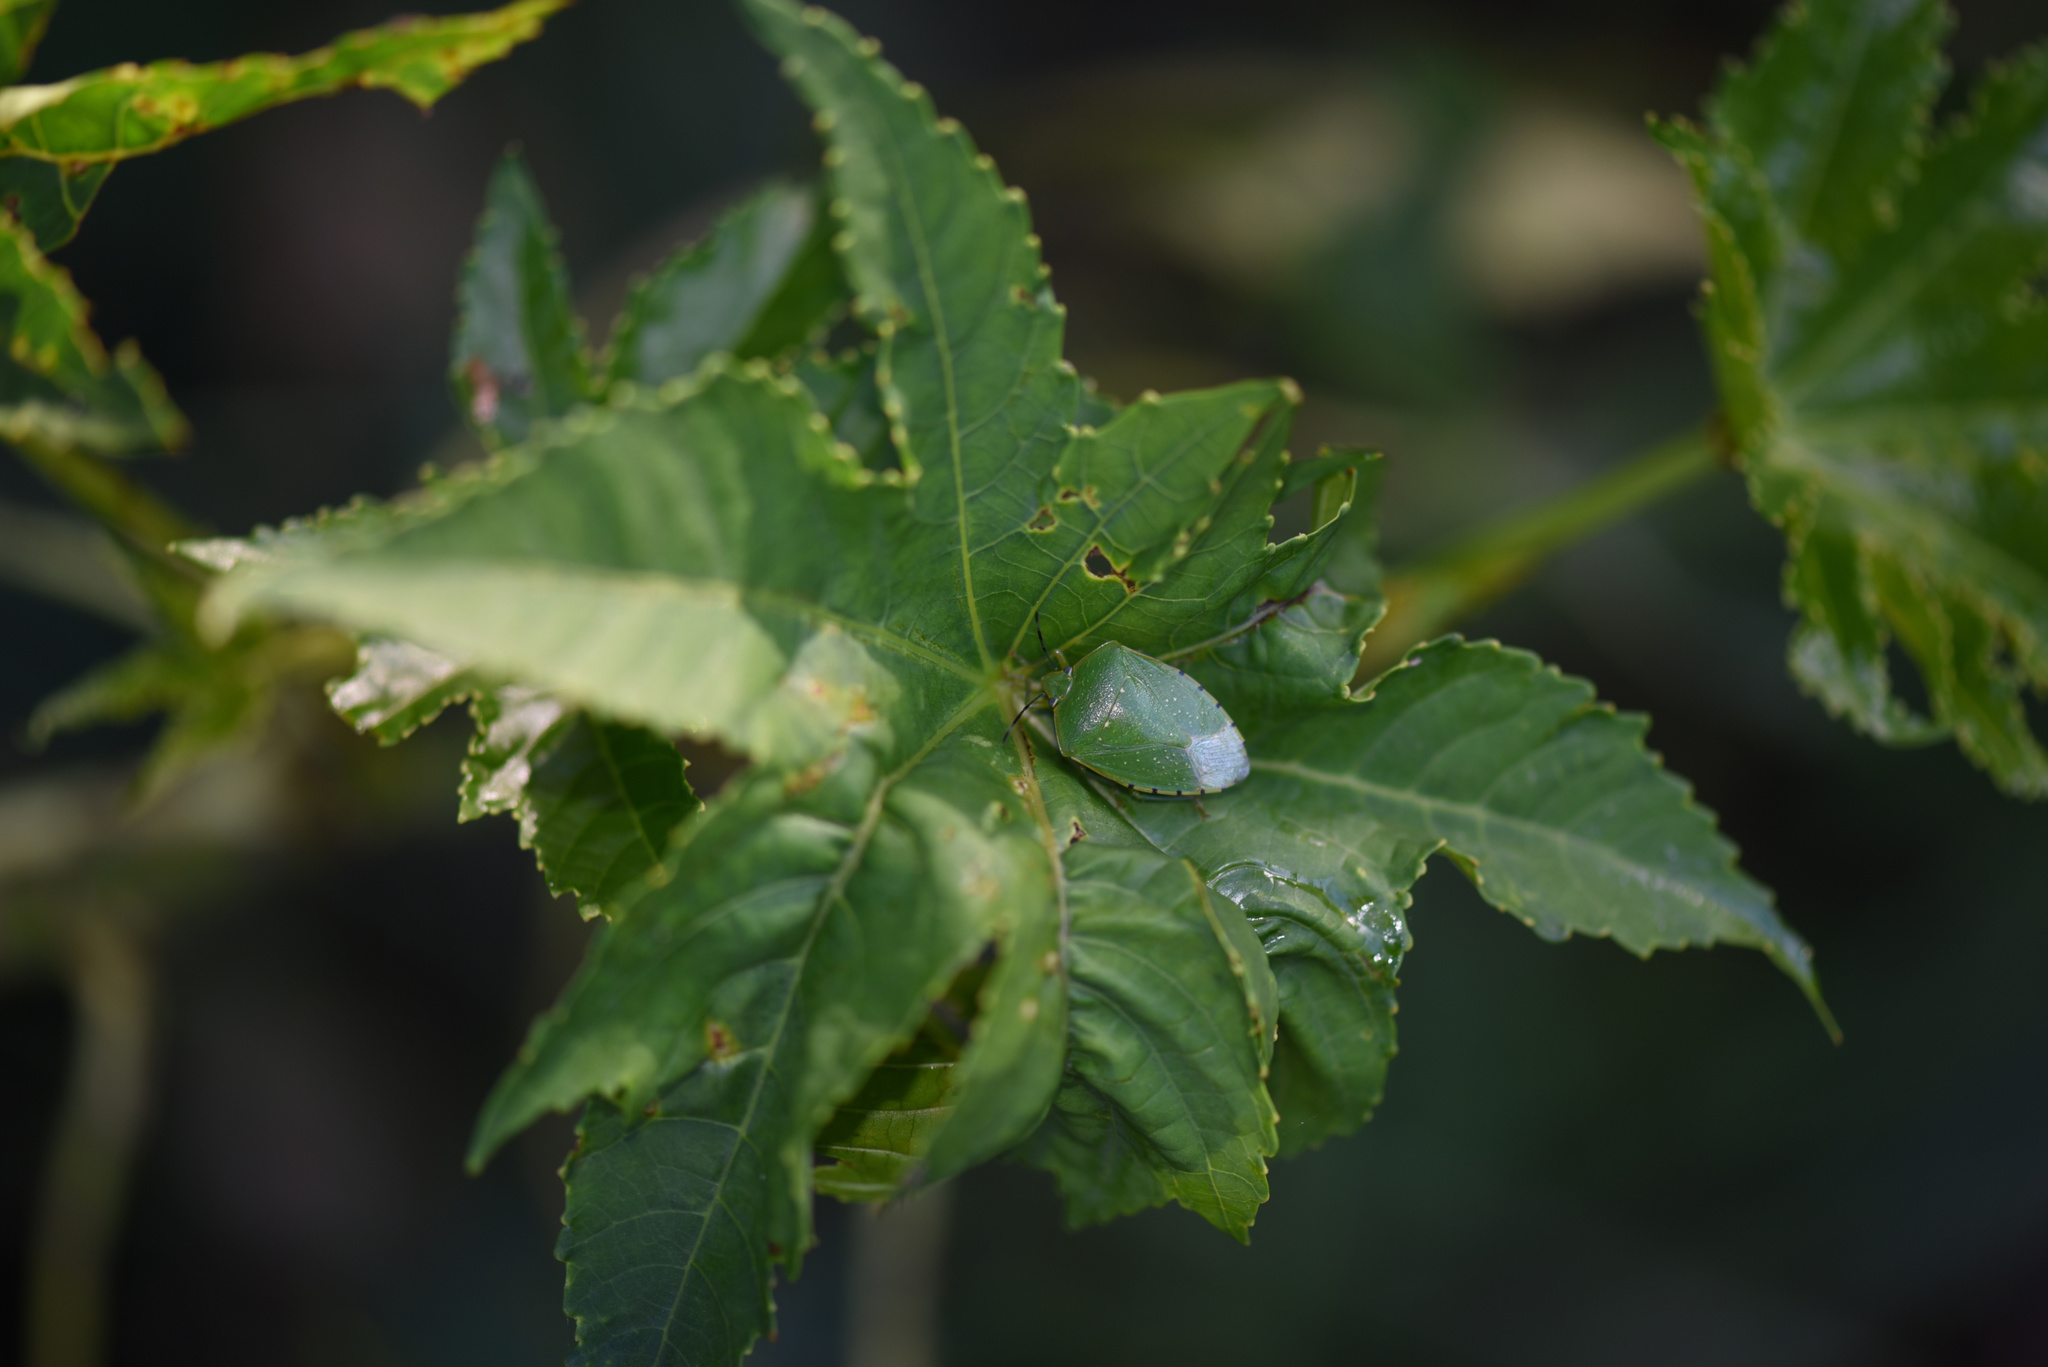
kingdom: Plantae
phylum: Tracheophyta
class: Magnoliopsida
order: Malpighiales
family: Euphorbiaceae
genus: Ricinus
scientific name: Ricinus communis
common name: Castor-oil-plant
